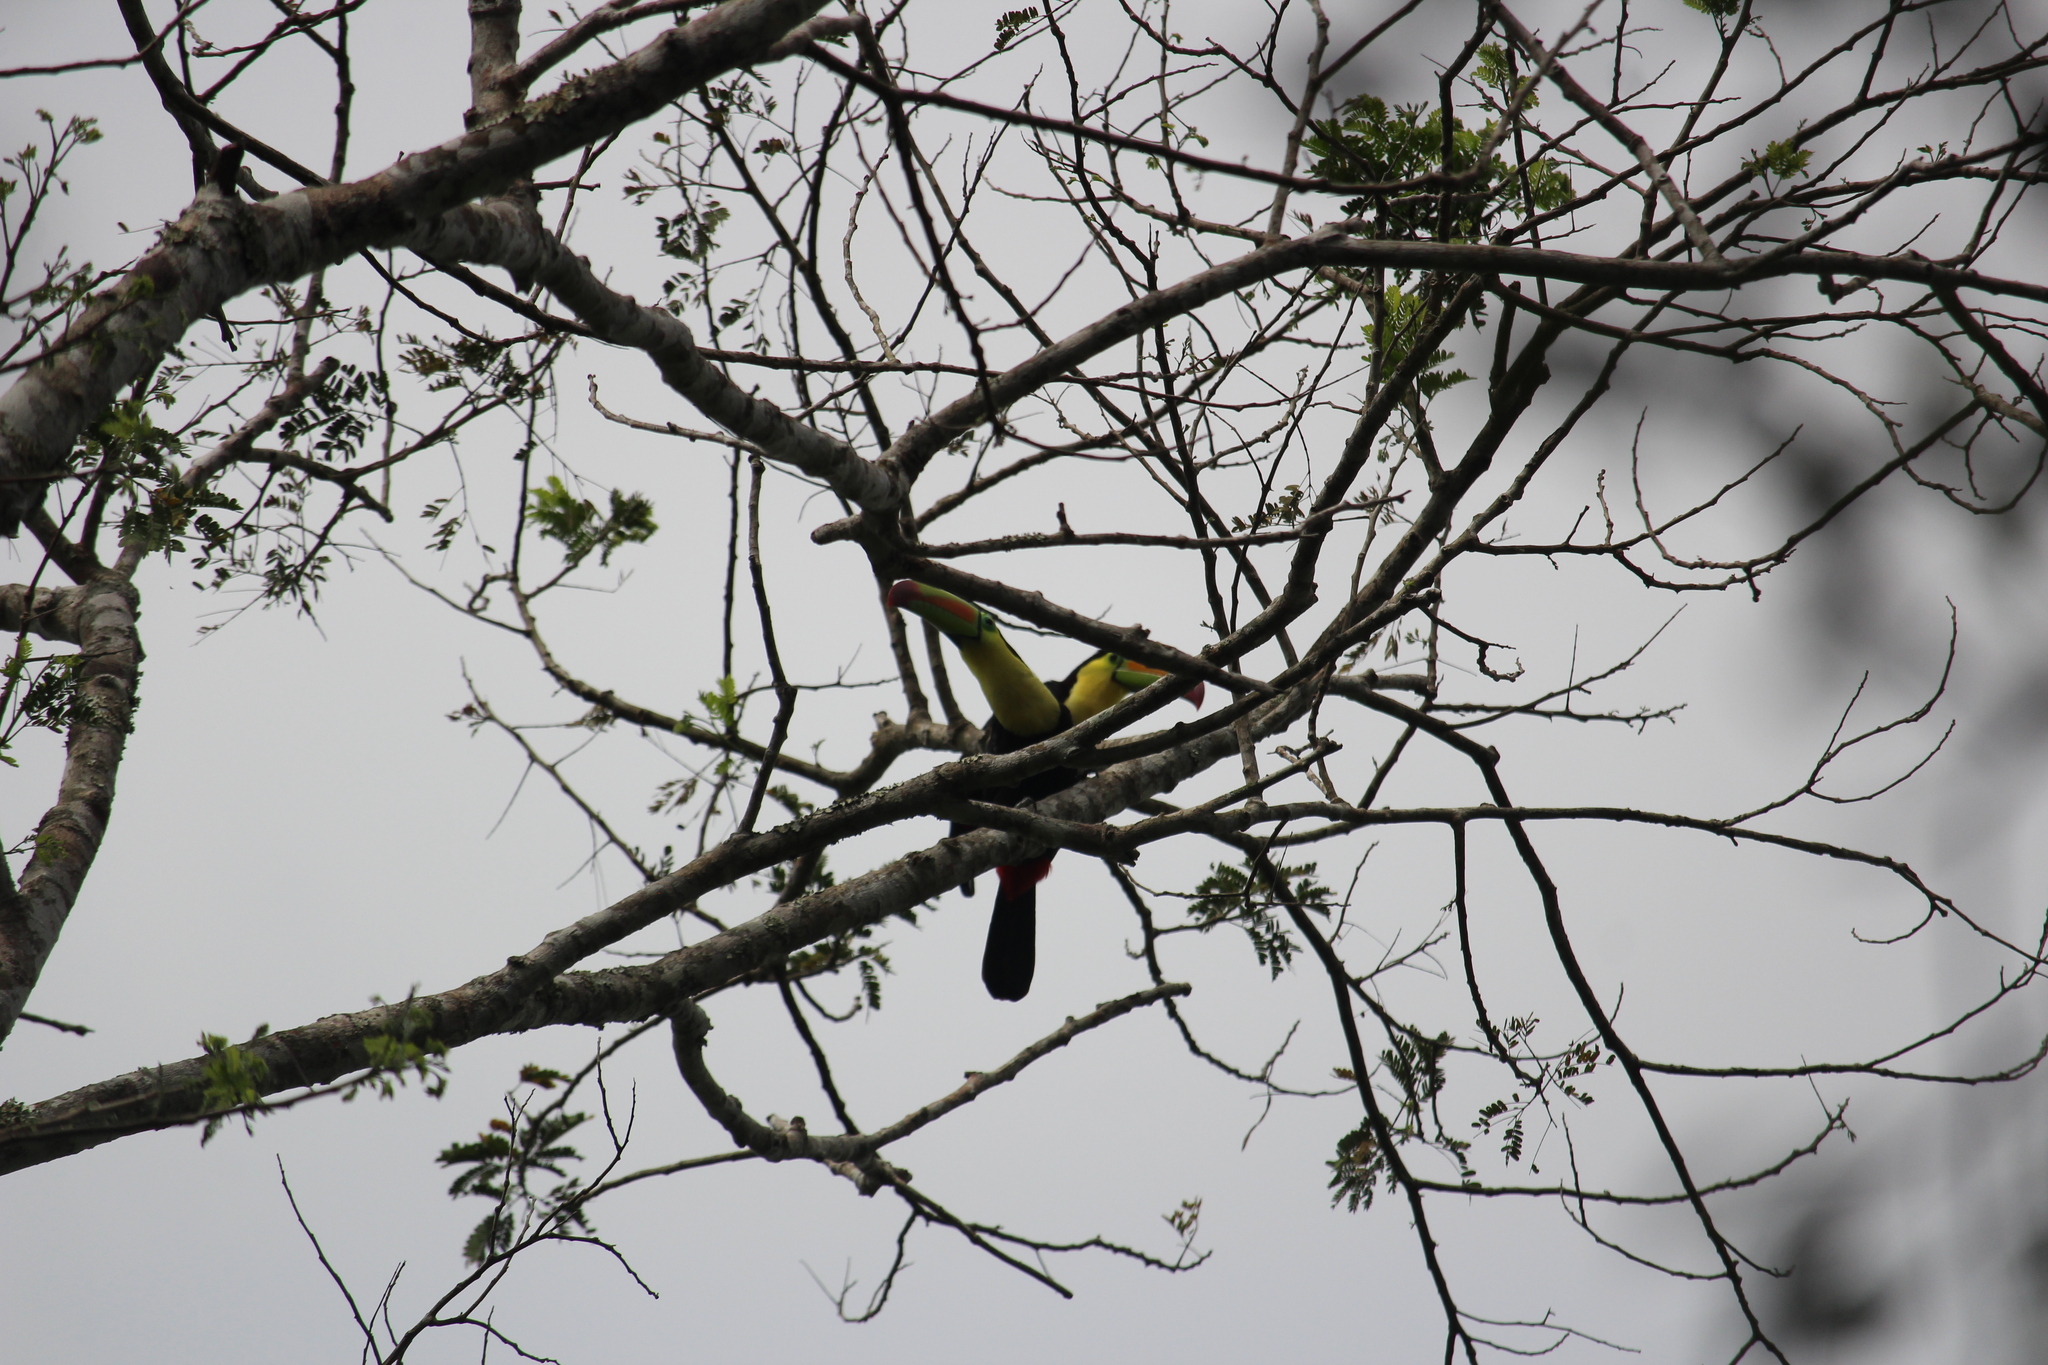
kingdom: Animalia
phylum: Chordata
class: Aves
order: Piciformes
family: Ramphastidae
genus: Ramphastos
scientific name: Ramphastos sulfuratus
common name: Keel-billed toucan
